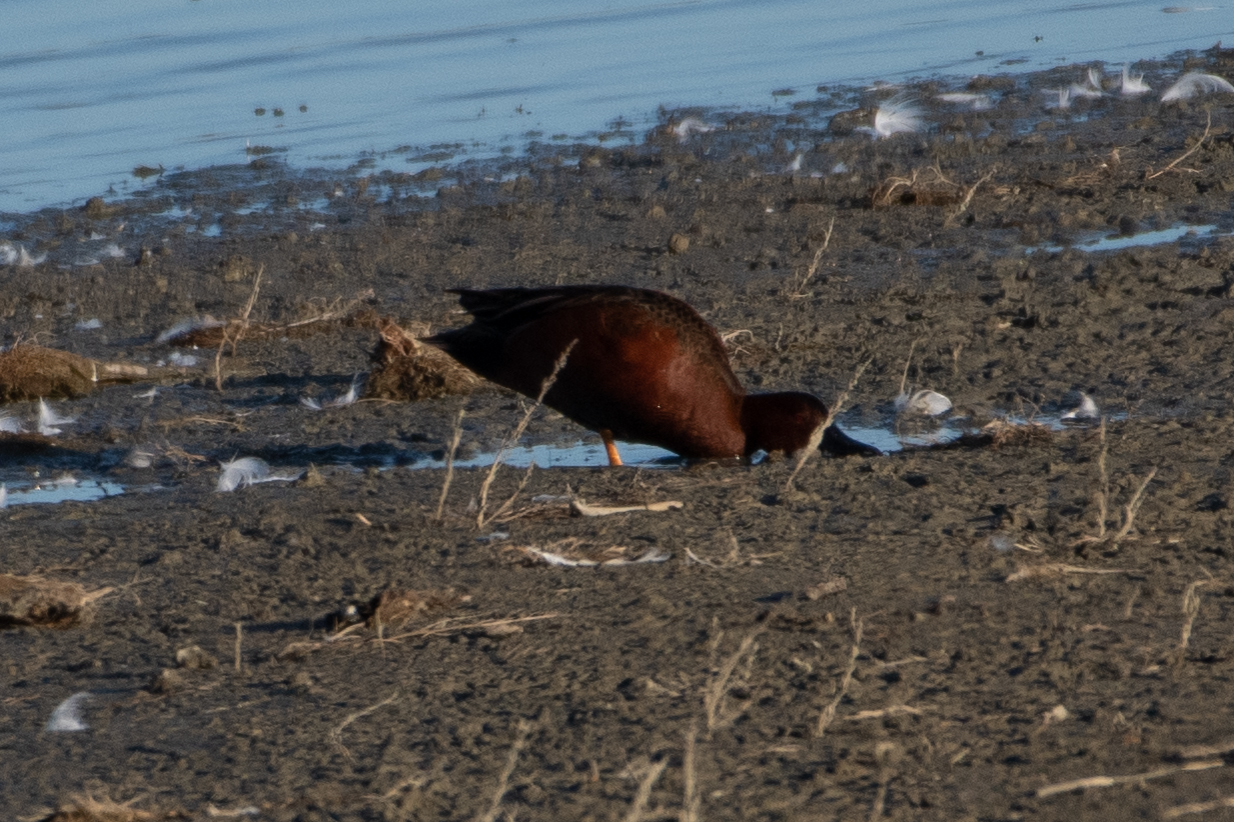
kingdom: Animalia
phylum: Chordata
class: Aves
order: Anseriformes
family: Anatidae
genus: Spatula
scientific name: Spatula cyanoptera
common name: Cinnamon teal
